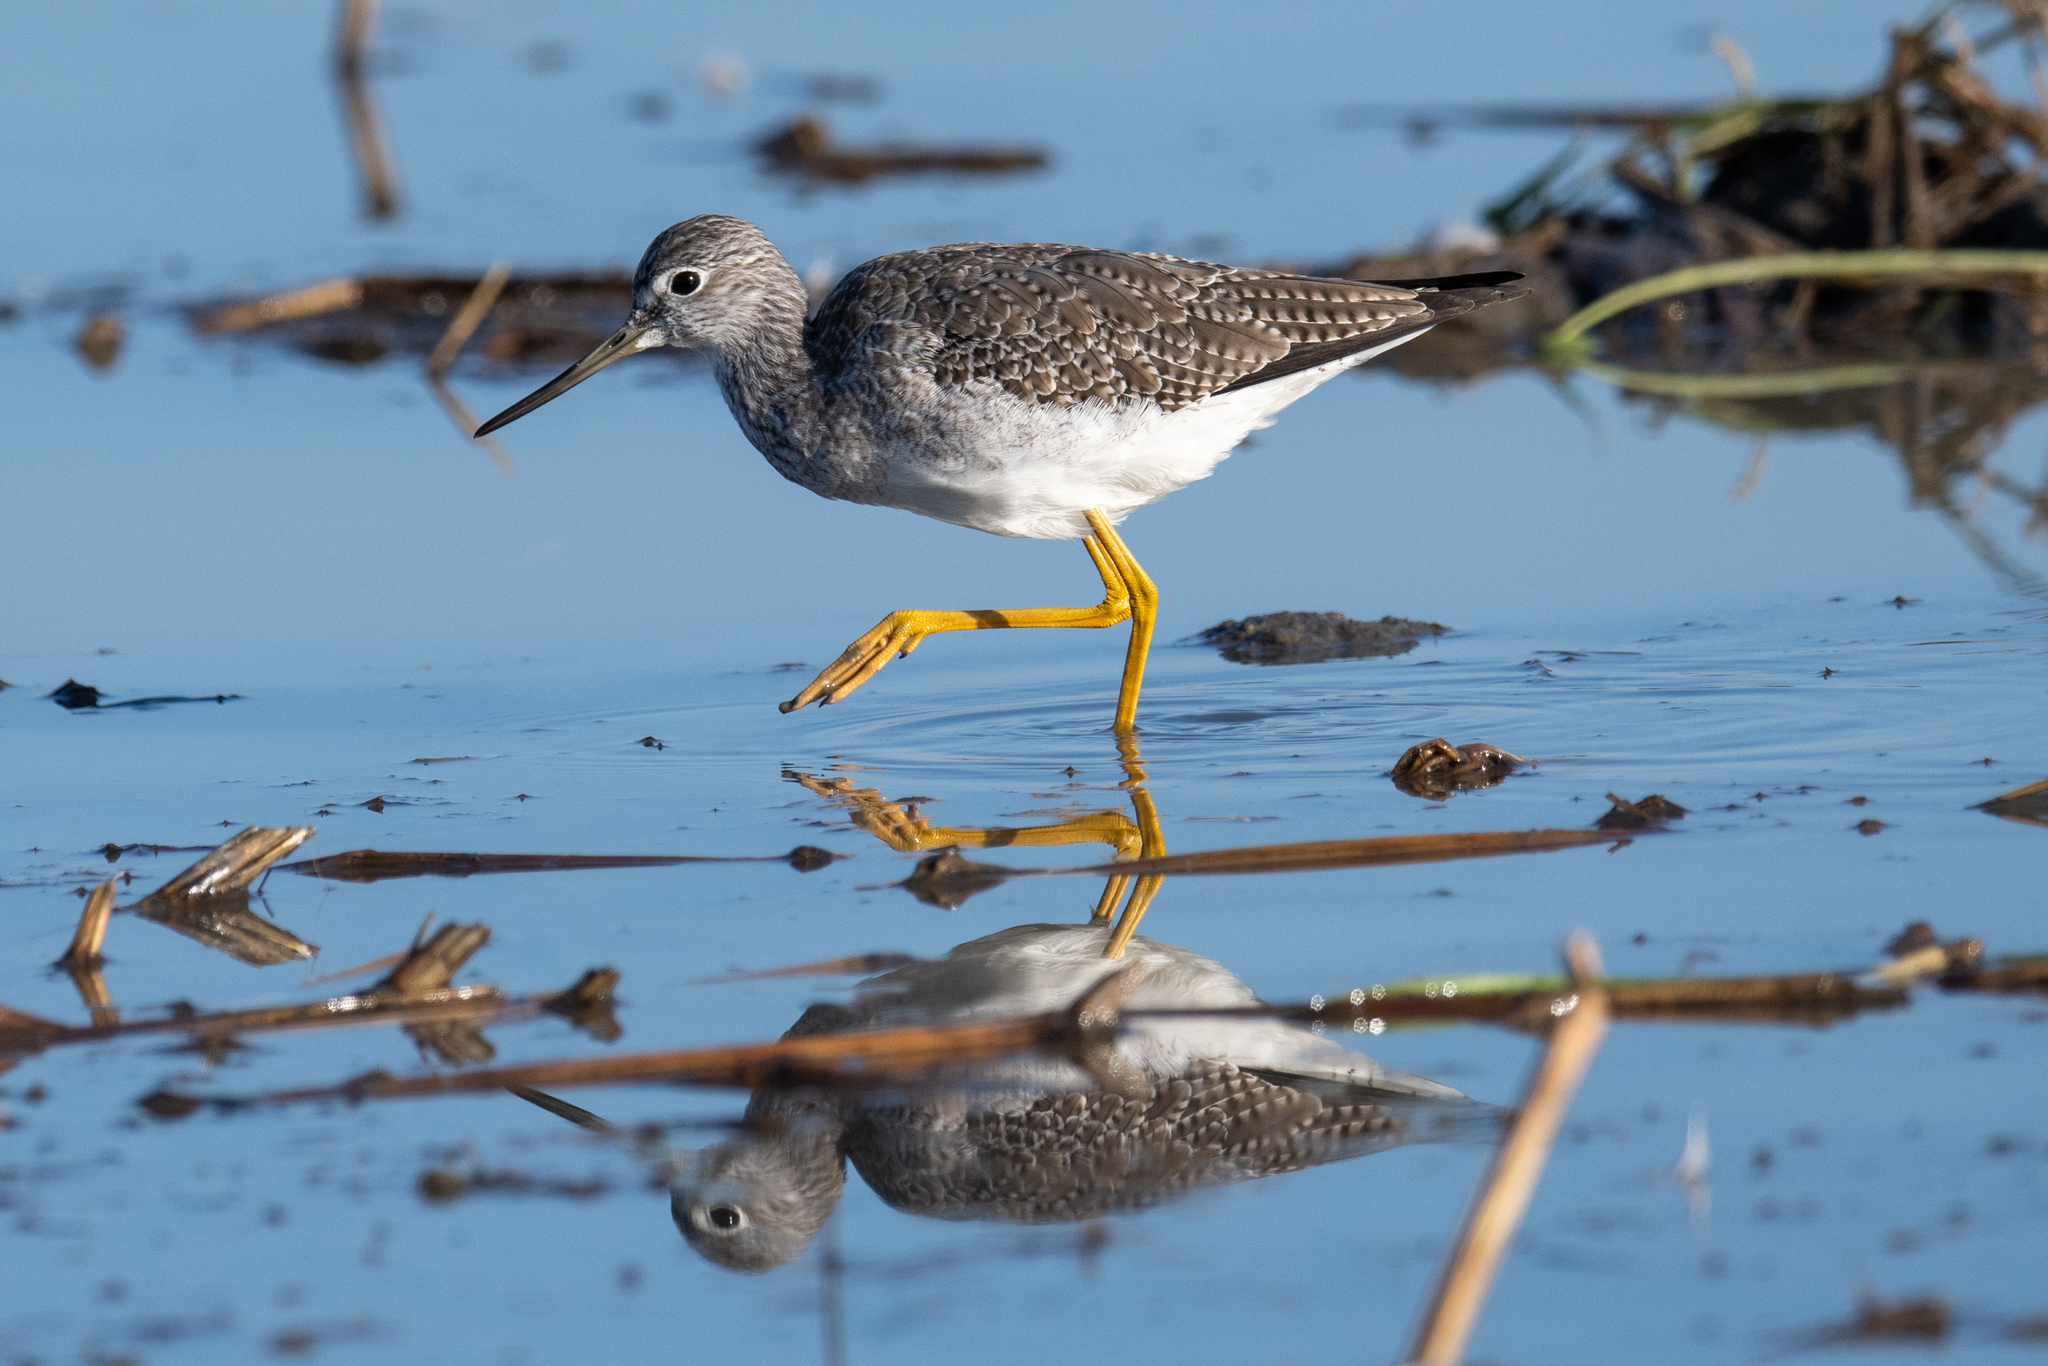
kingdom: Animalia
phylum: Chordata
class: Aves
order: Charadriiformes
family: Scolopacidae
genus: Tringa
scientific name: Tringa melanoleuca
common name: Greater yellowlegs
